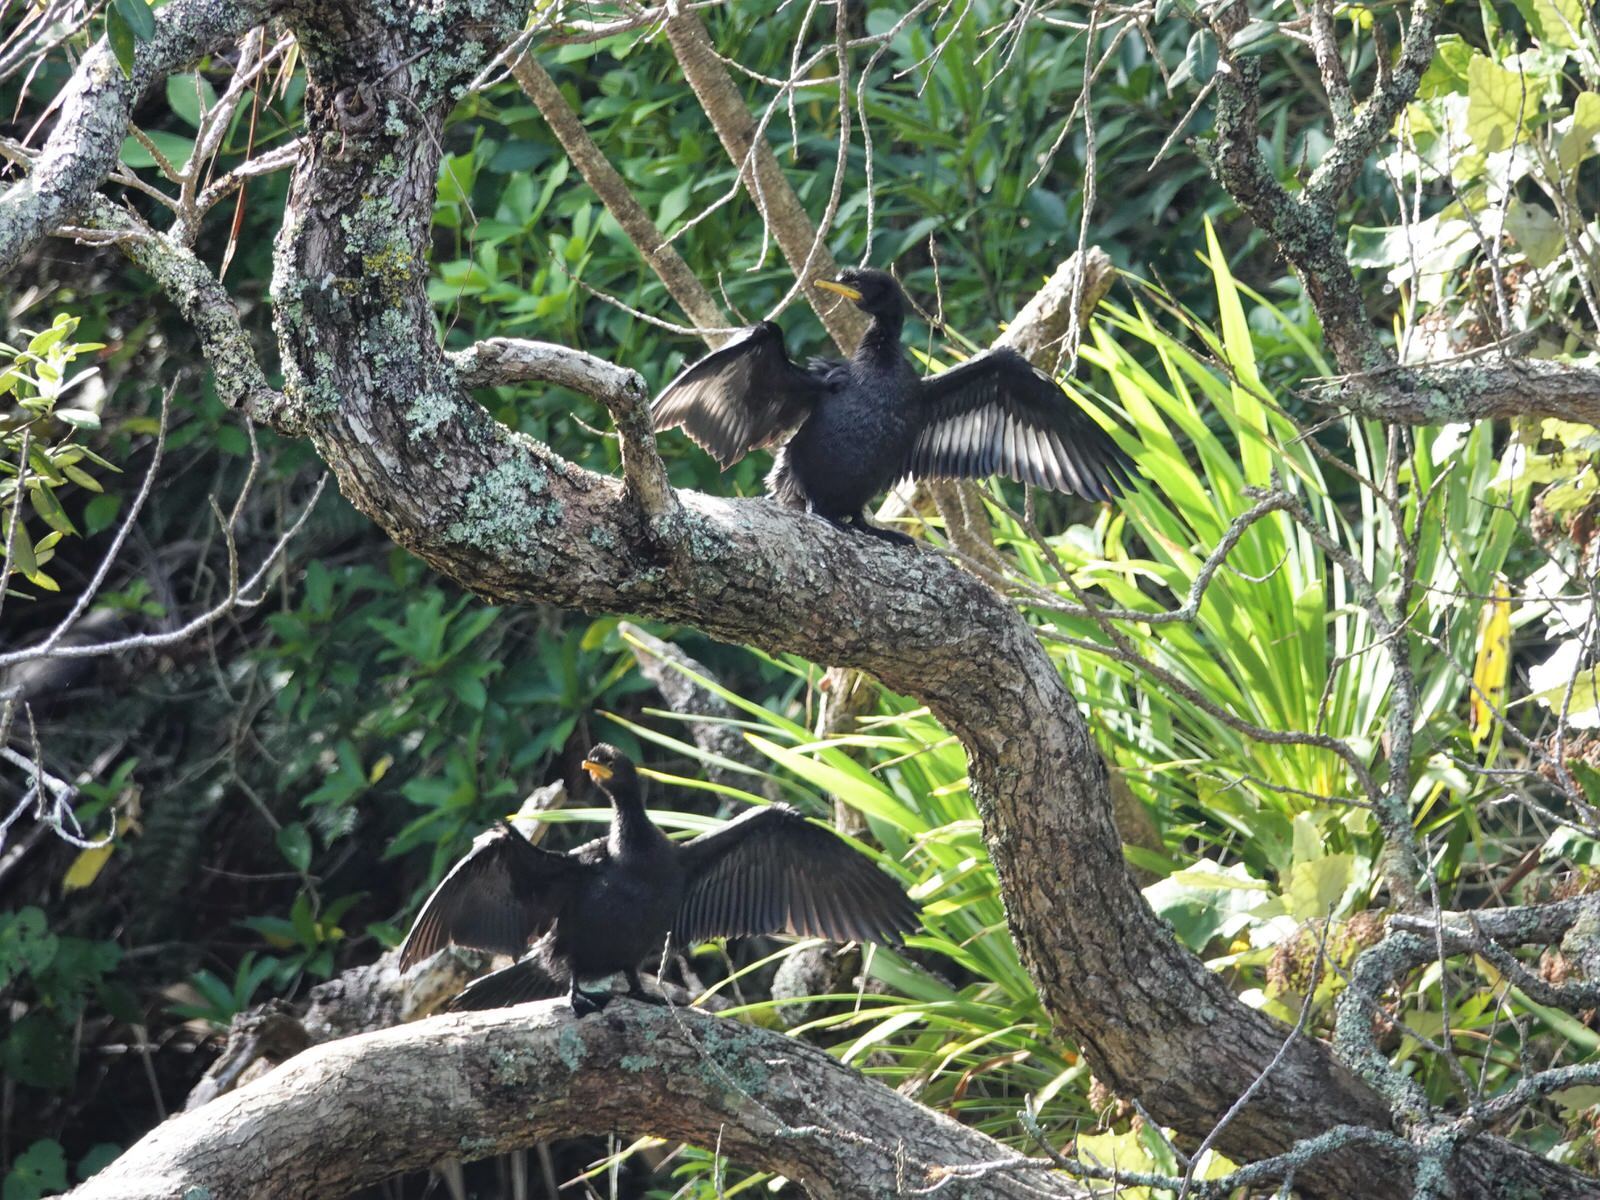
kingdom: Animalia
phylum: Chordata
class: Aves
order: Suliformes
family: Phalacrocoracidae
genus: Microcarbo
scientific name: Microcarbo melanoleucos
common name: Little pied cormorant
